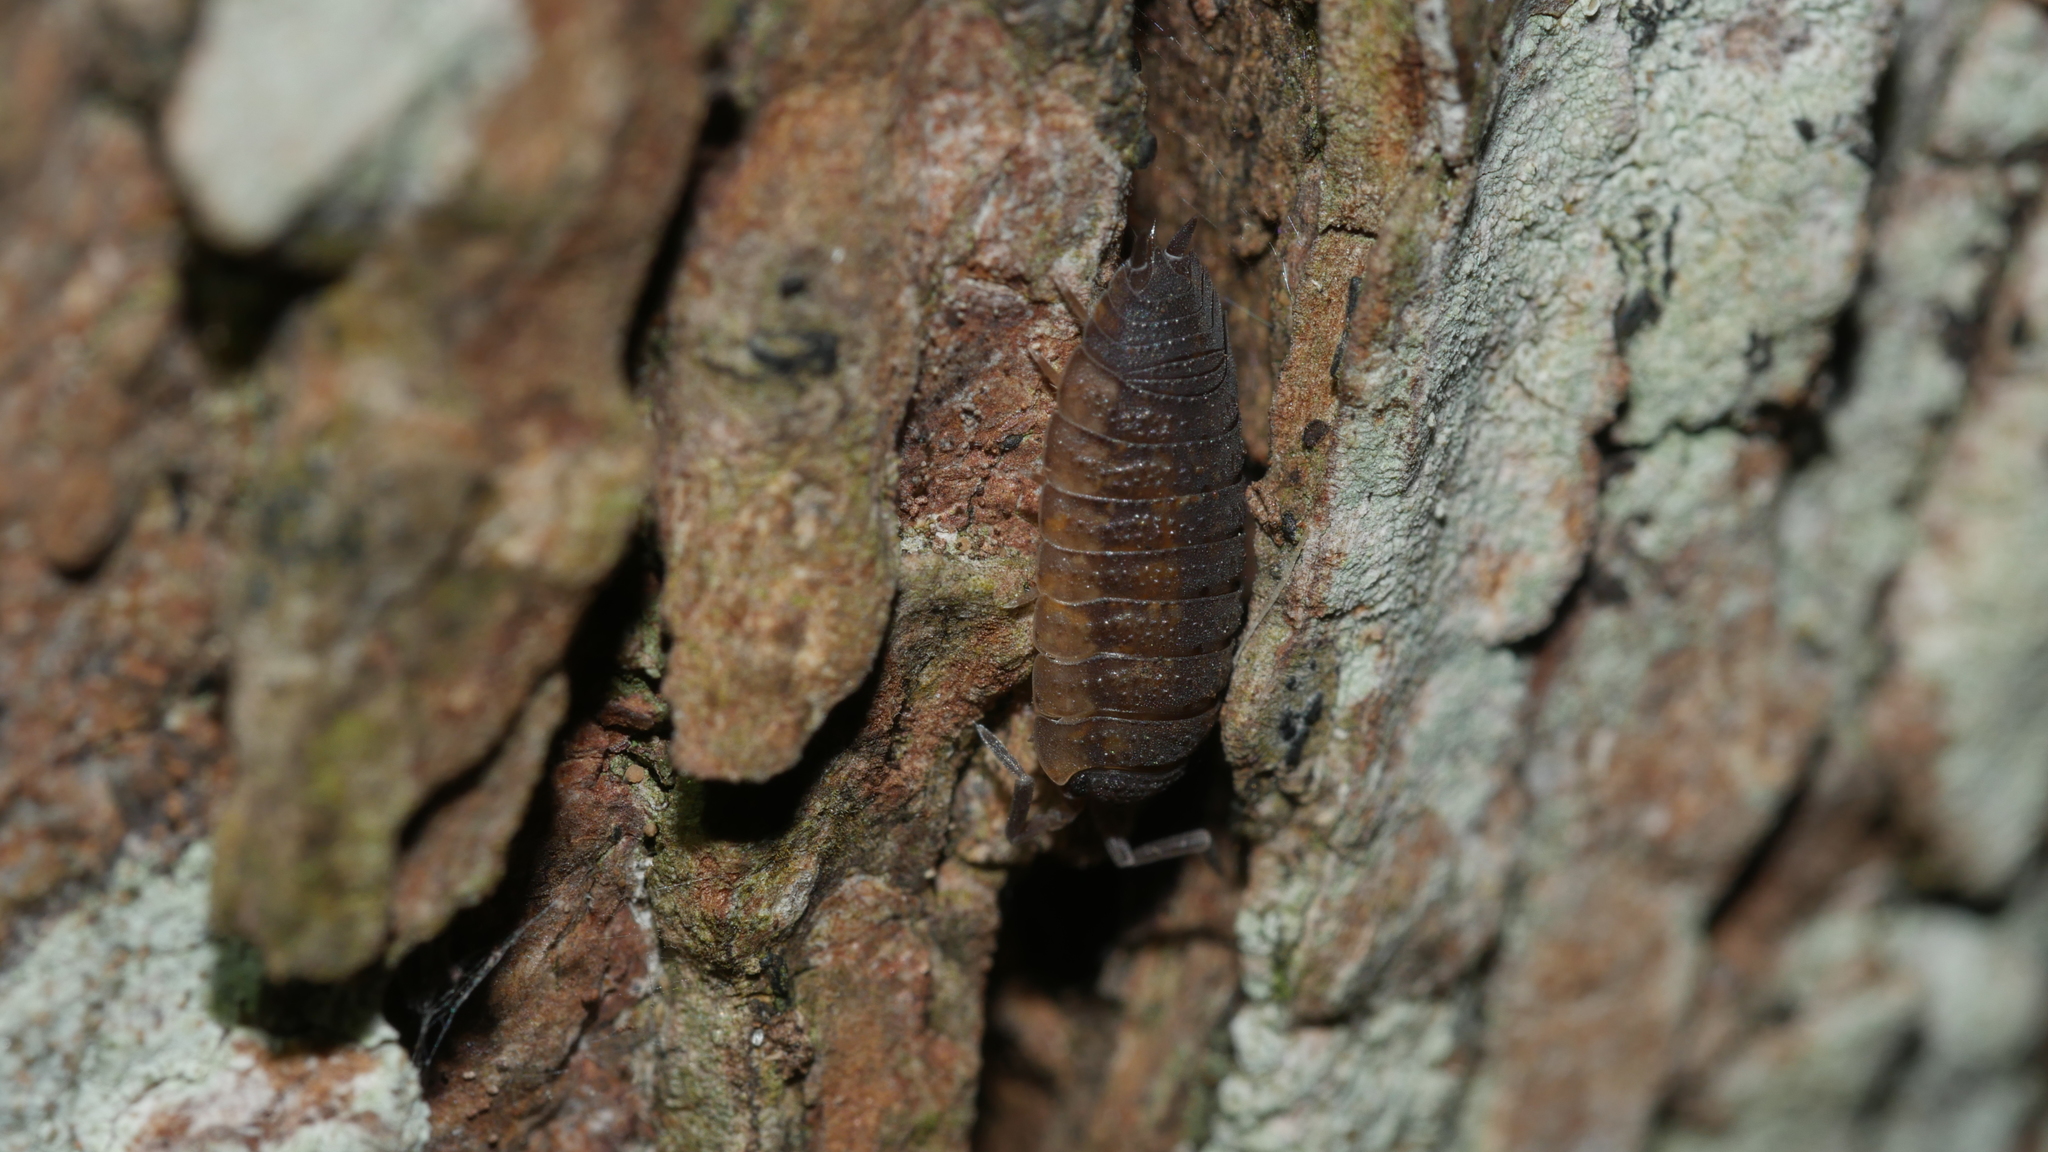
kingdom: Animalia
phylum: Arthropoda
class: Malacostraca
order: Isopoda
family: Porcellionidae
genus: Porcellio
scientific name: Porcellio scaber
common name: Common rough woodlouse
